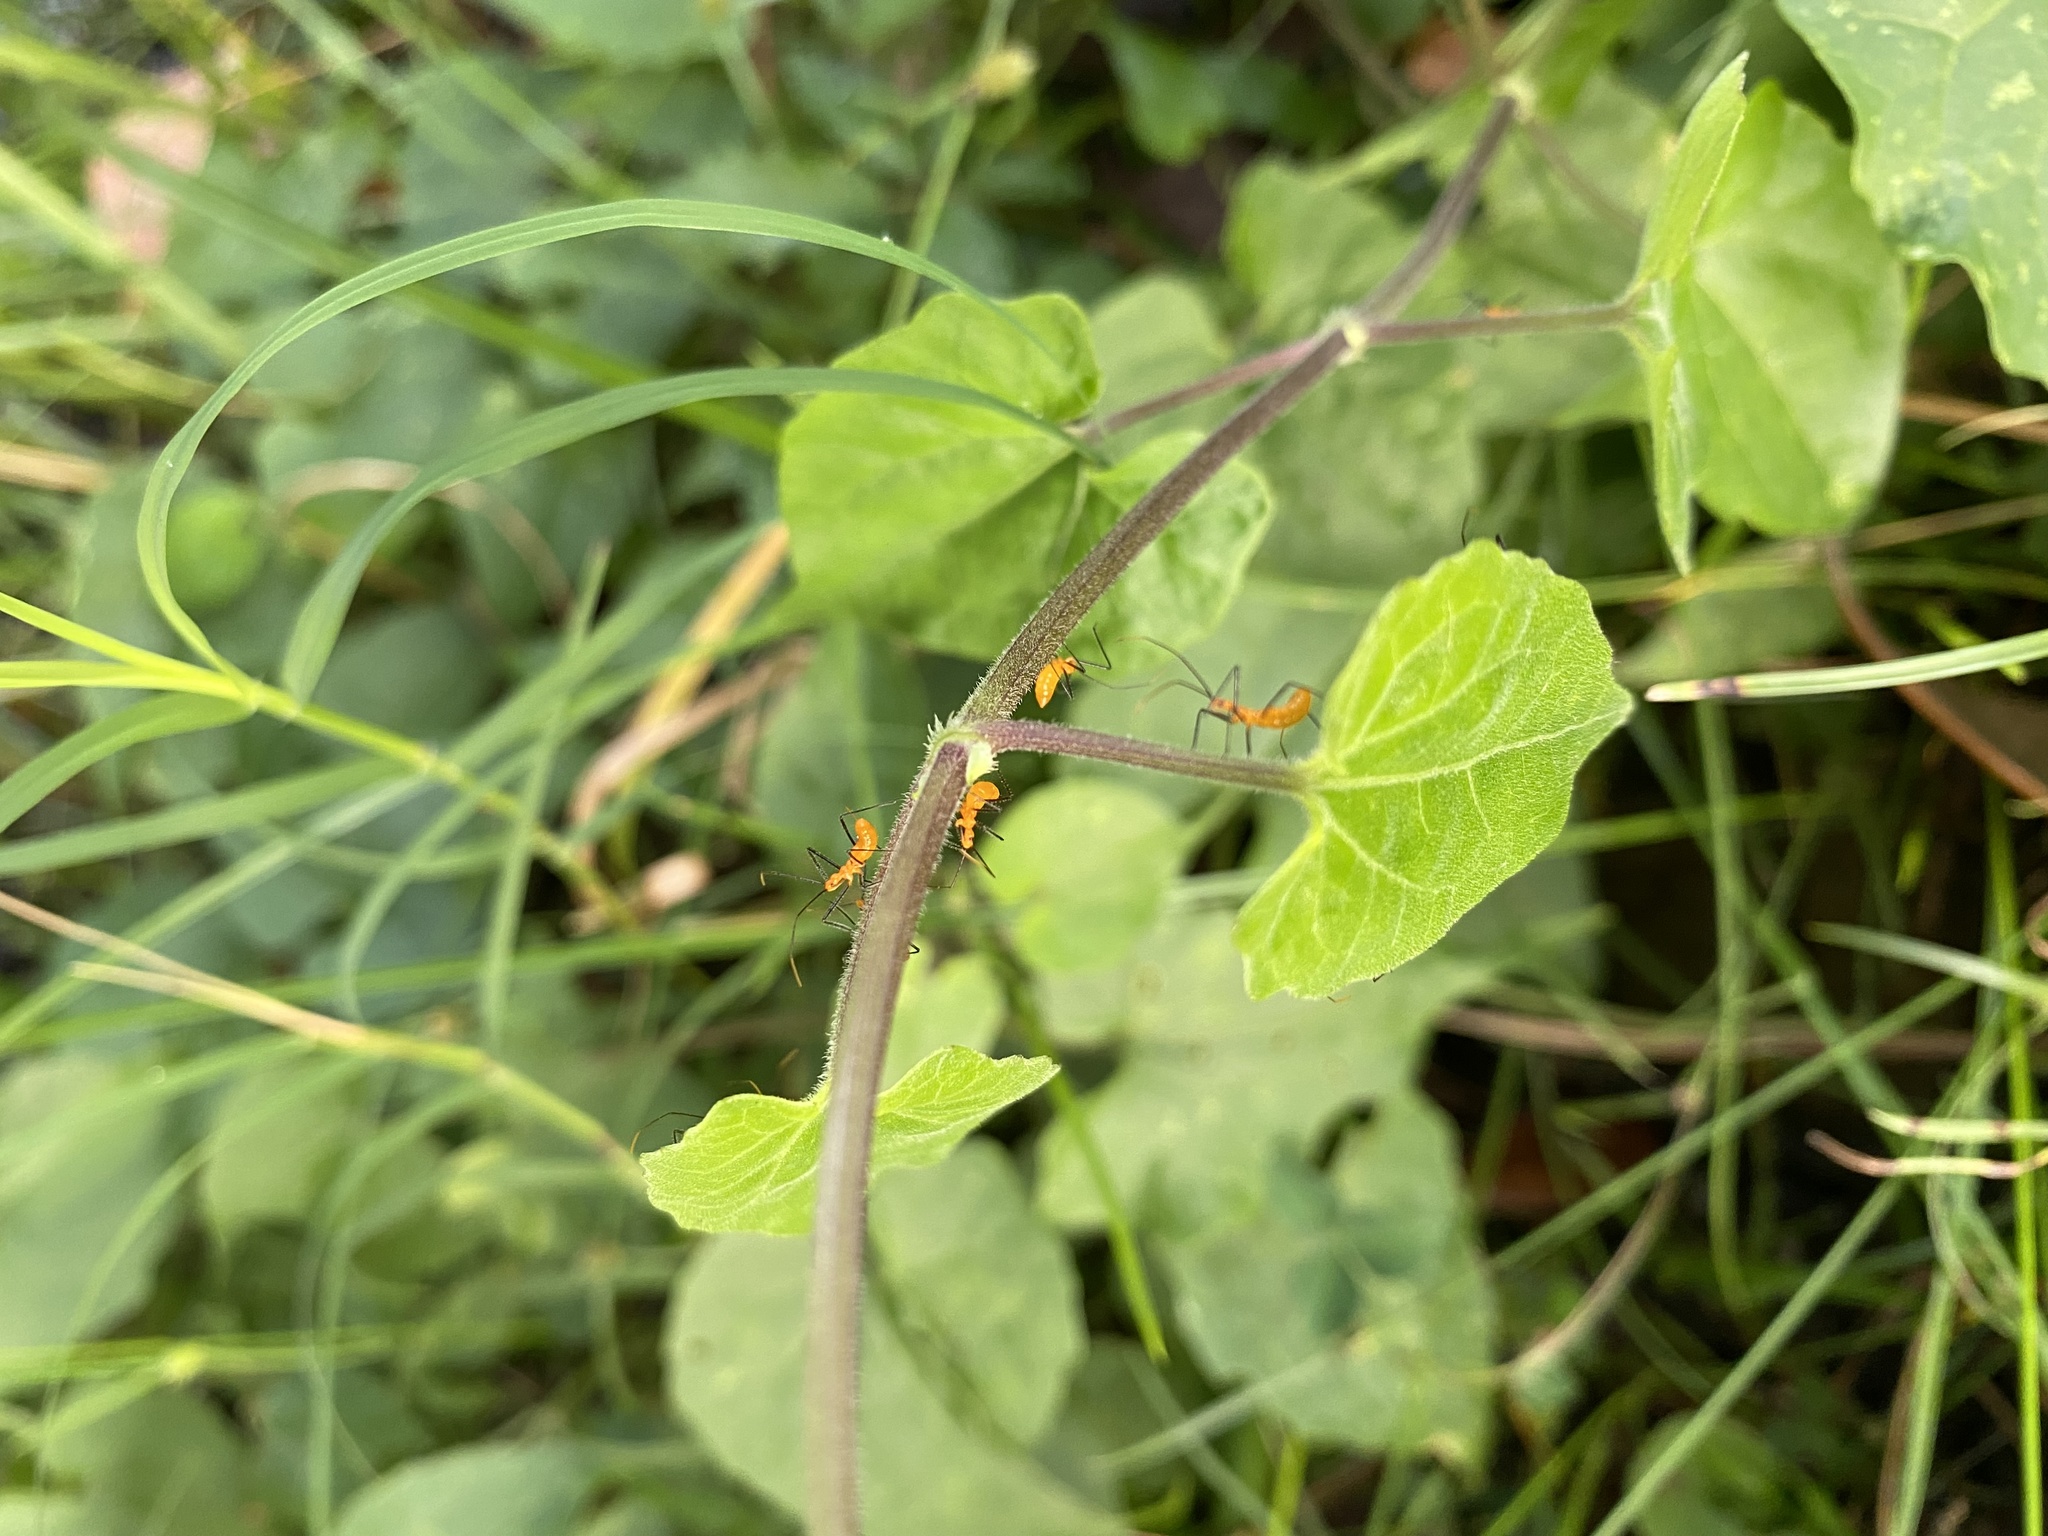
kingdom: Animalia
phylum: Arthropoda
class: Insecta
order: Hemiptera
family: Reduviidae
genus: Zelus
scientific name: Zelus longipes
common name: Milkweed assassin bug
